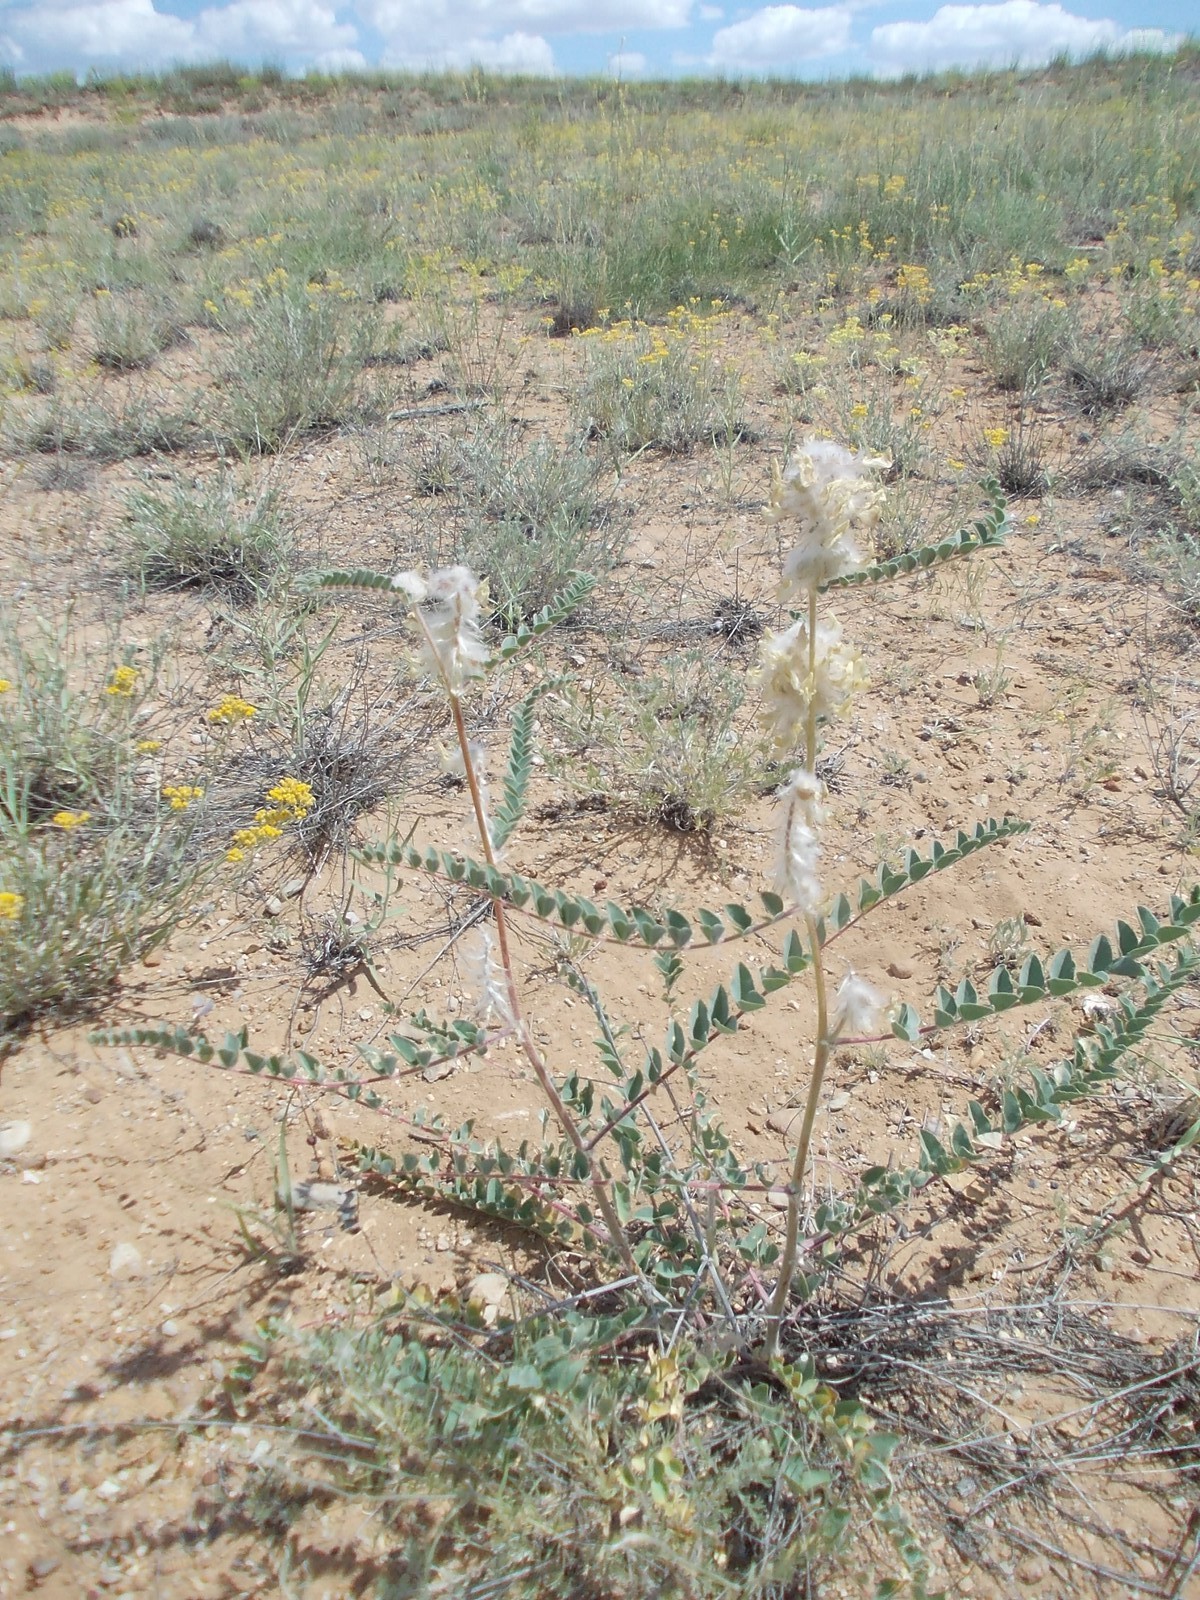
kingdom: Plantae
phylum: Tracheophyta
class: Magnoliopsida
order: Fabales
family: Fabaceae
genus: Astragalus
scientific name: Astragalus vulpinus
